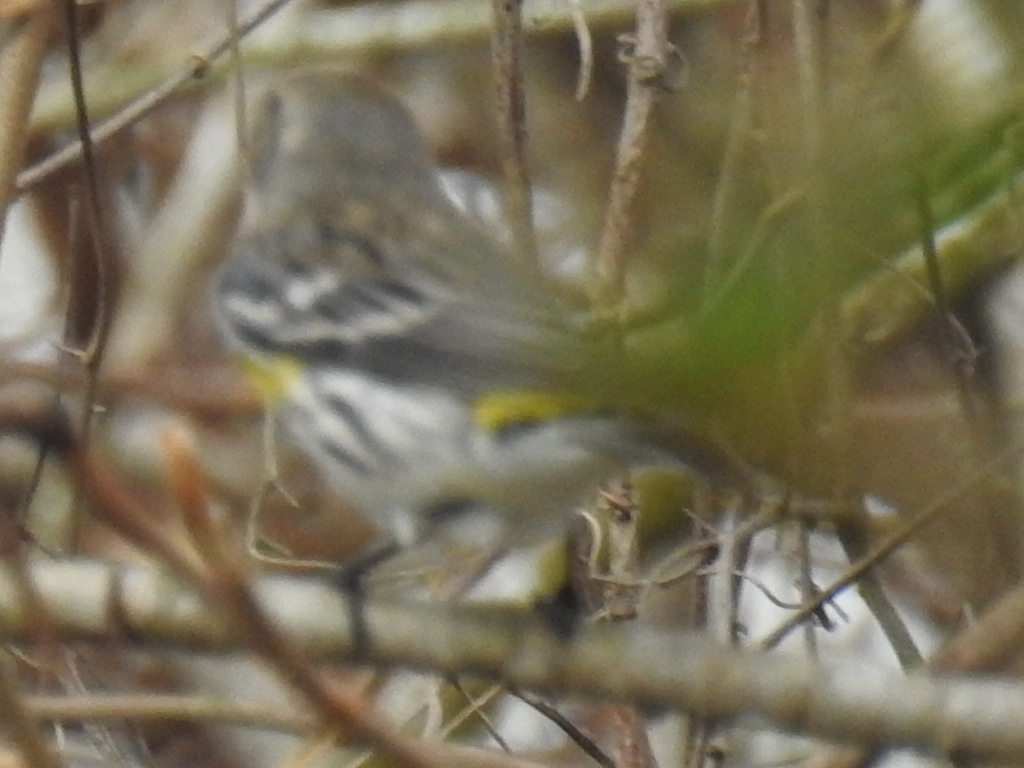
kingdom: Animalia
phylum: Chordata
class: Aves
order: Passeriformes
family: Parulidae
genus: Setophaga
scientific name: Setophaga coronata
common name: Myrtle warbler
